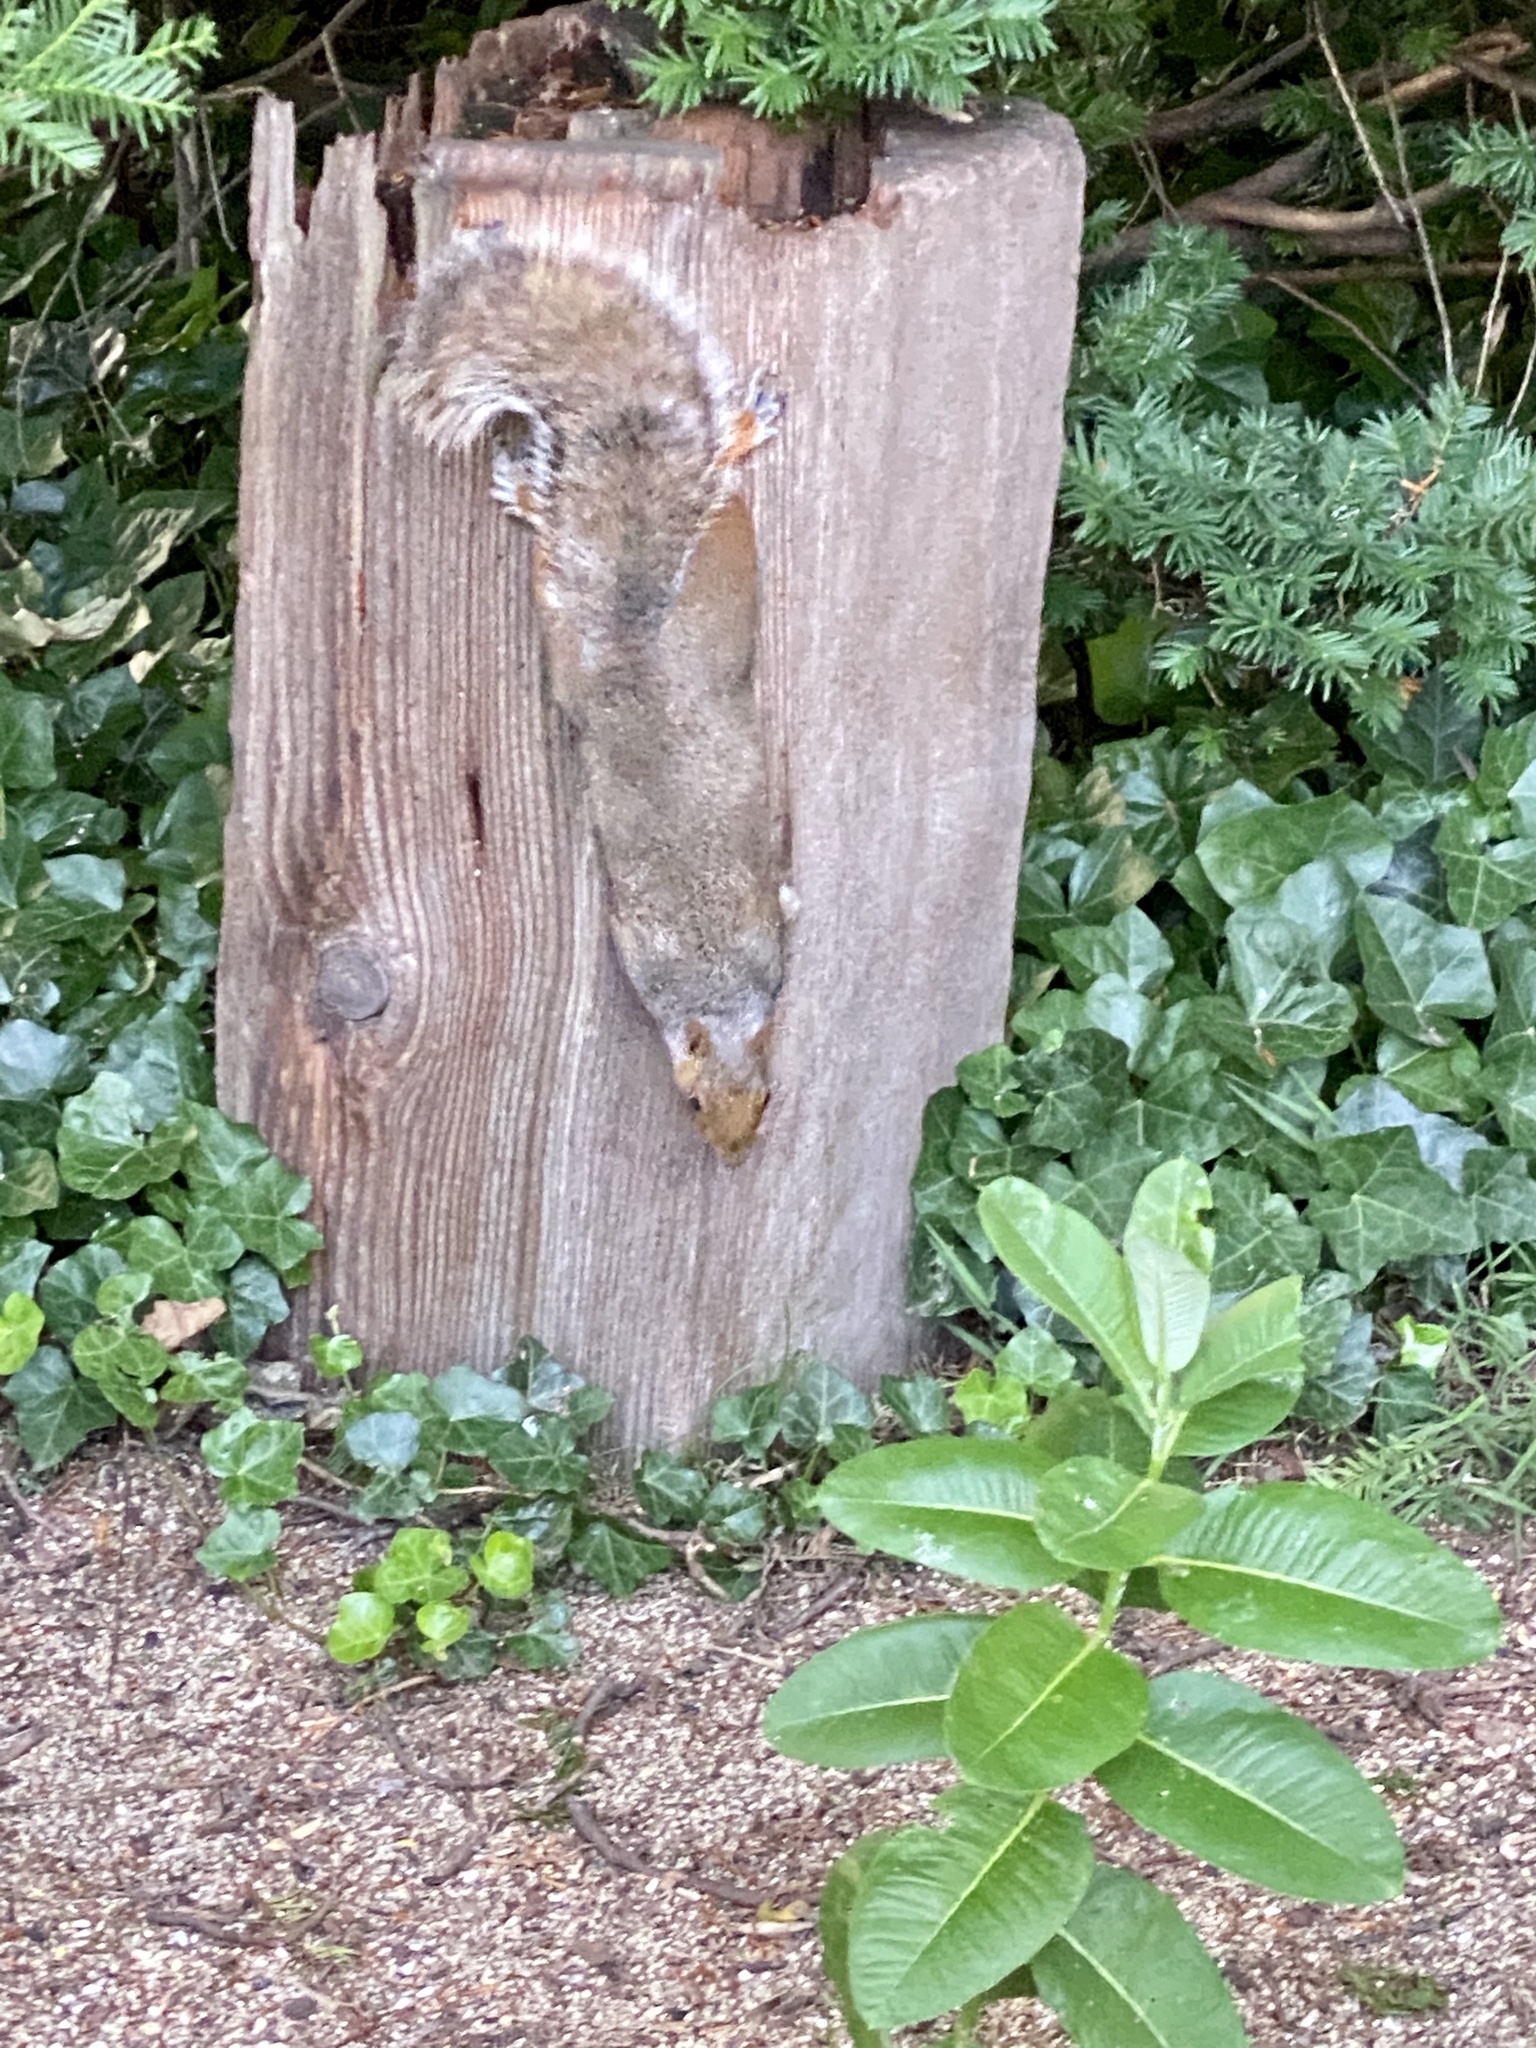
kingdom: Animalia
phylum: Chordata
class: Mammalia
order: Rodentia
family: Sciuridae
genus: Sciurus
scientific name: Sciurus carolinensis
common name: Eastern gray squirrel
